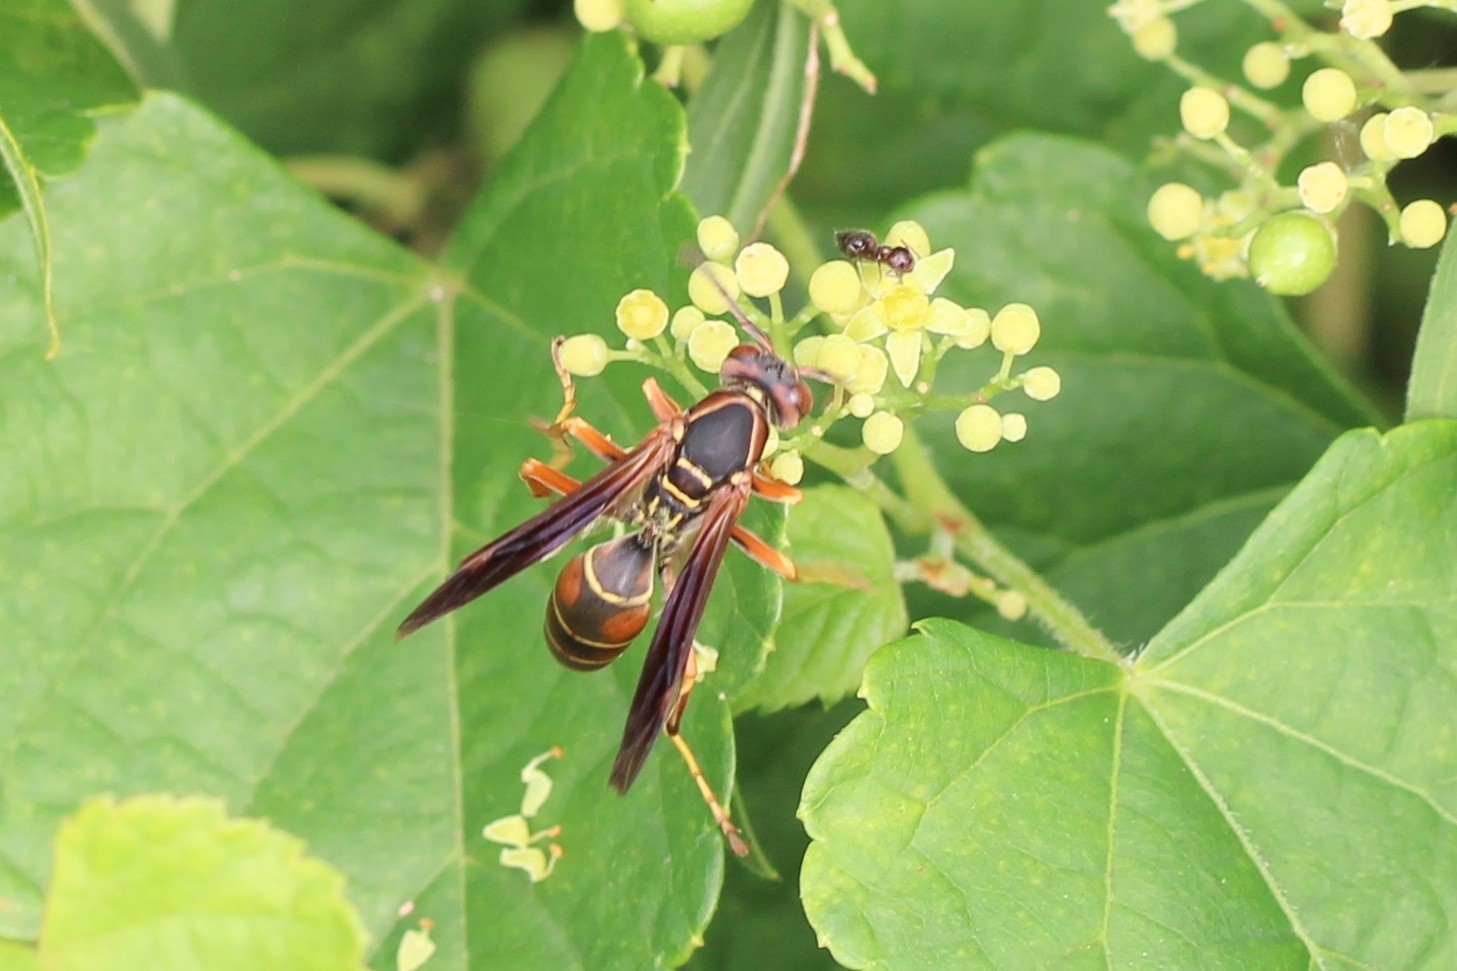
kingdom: Animalia
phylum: Arthropoda
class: Insecta
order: Hymenoptera
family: Eumenidae
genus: Polistes
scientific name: Polistes fuscatus
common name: Dark paper wasp
